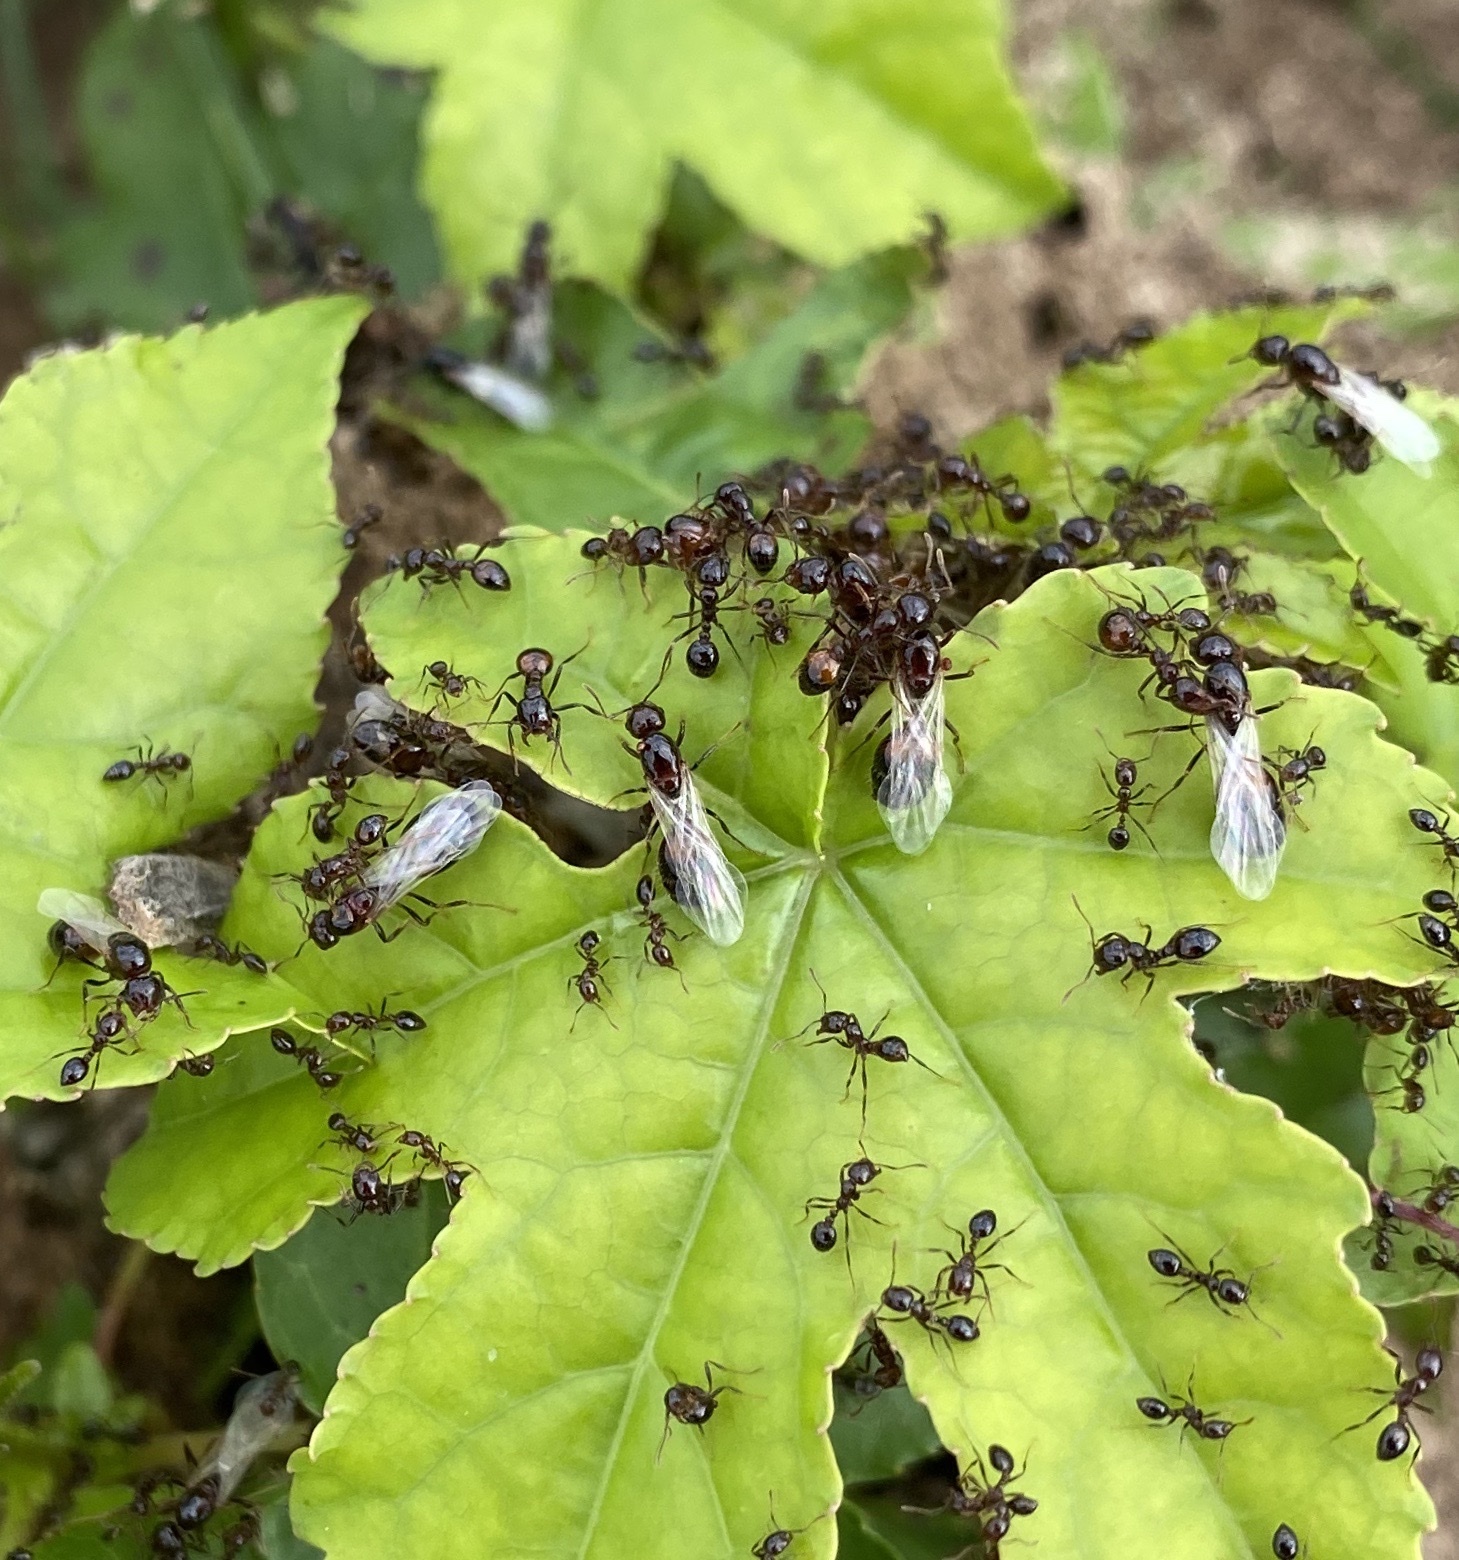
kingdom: Animalia
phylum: Arthropoda
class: Insecta
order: Hymenoptera
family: Formicidae
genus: Solenopsis
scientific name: Solenopsis
